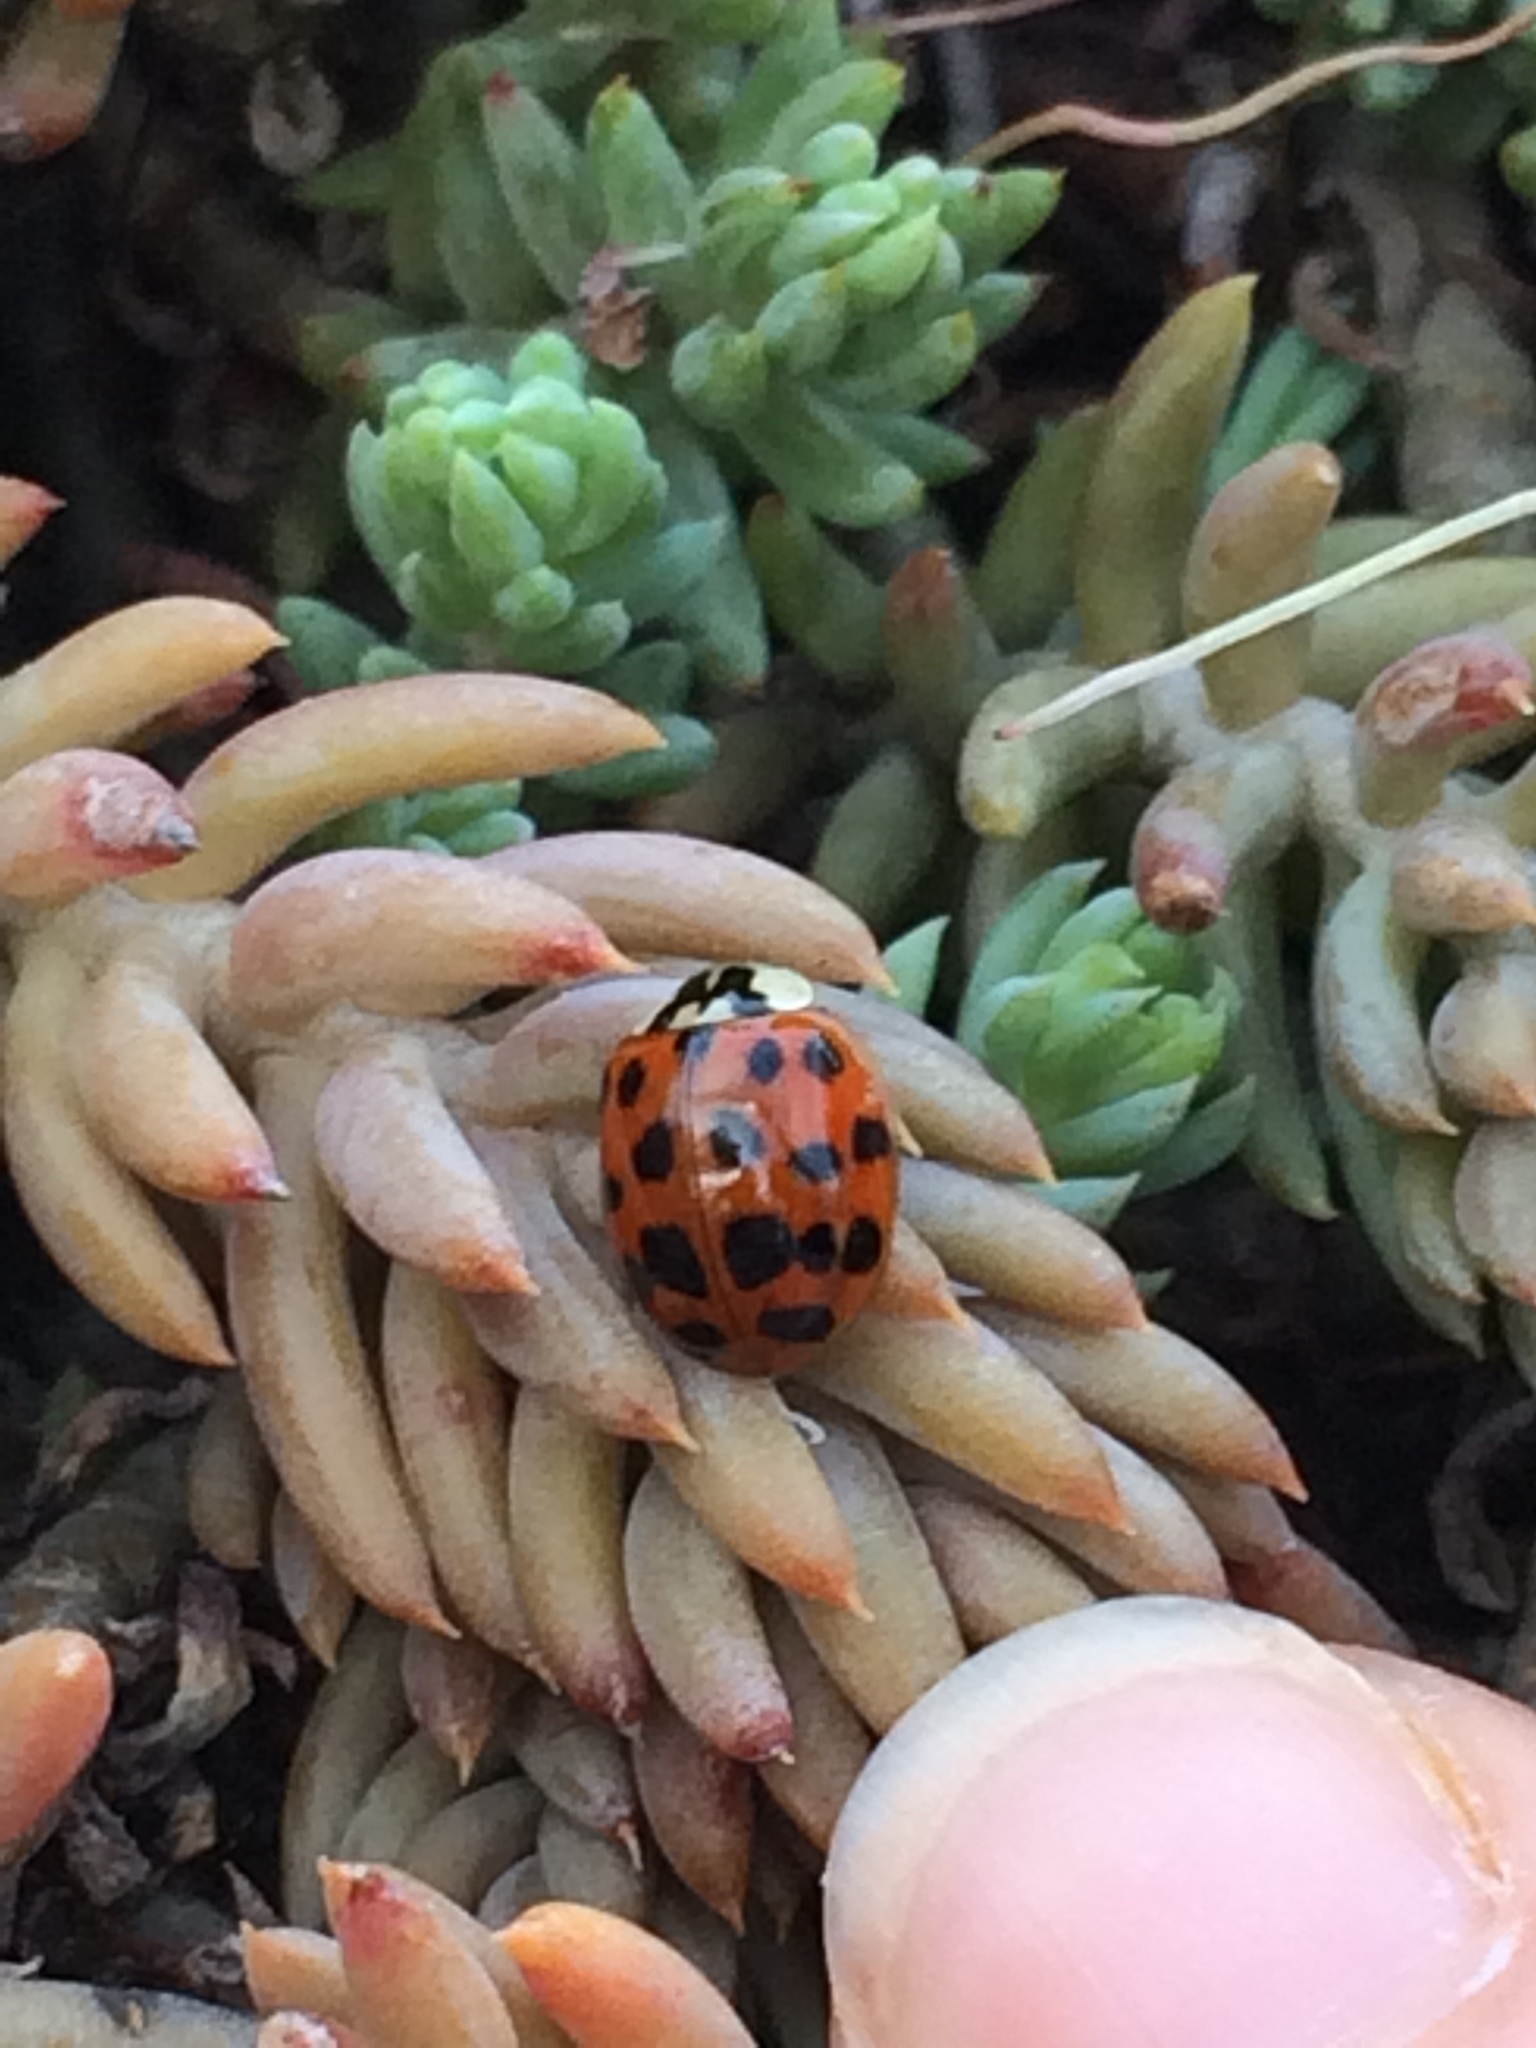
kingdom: Animalia
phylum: Arthropoda
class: Insecta
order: Coleoptera
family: Coccinellidae
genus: Harmonia
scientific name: Harmonia axyridis
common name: Harlequin ladybird
